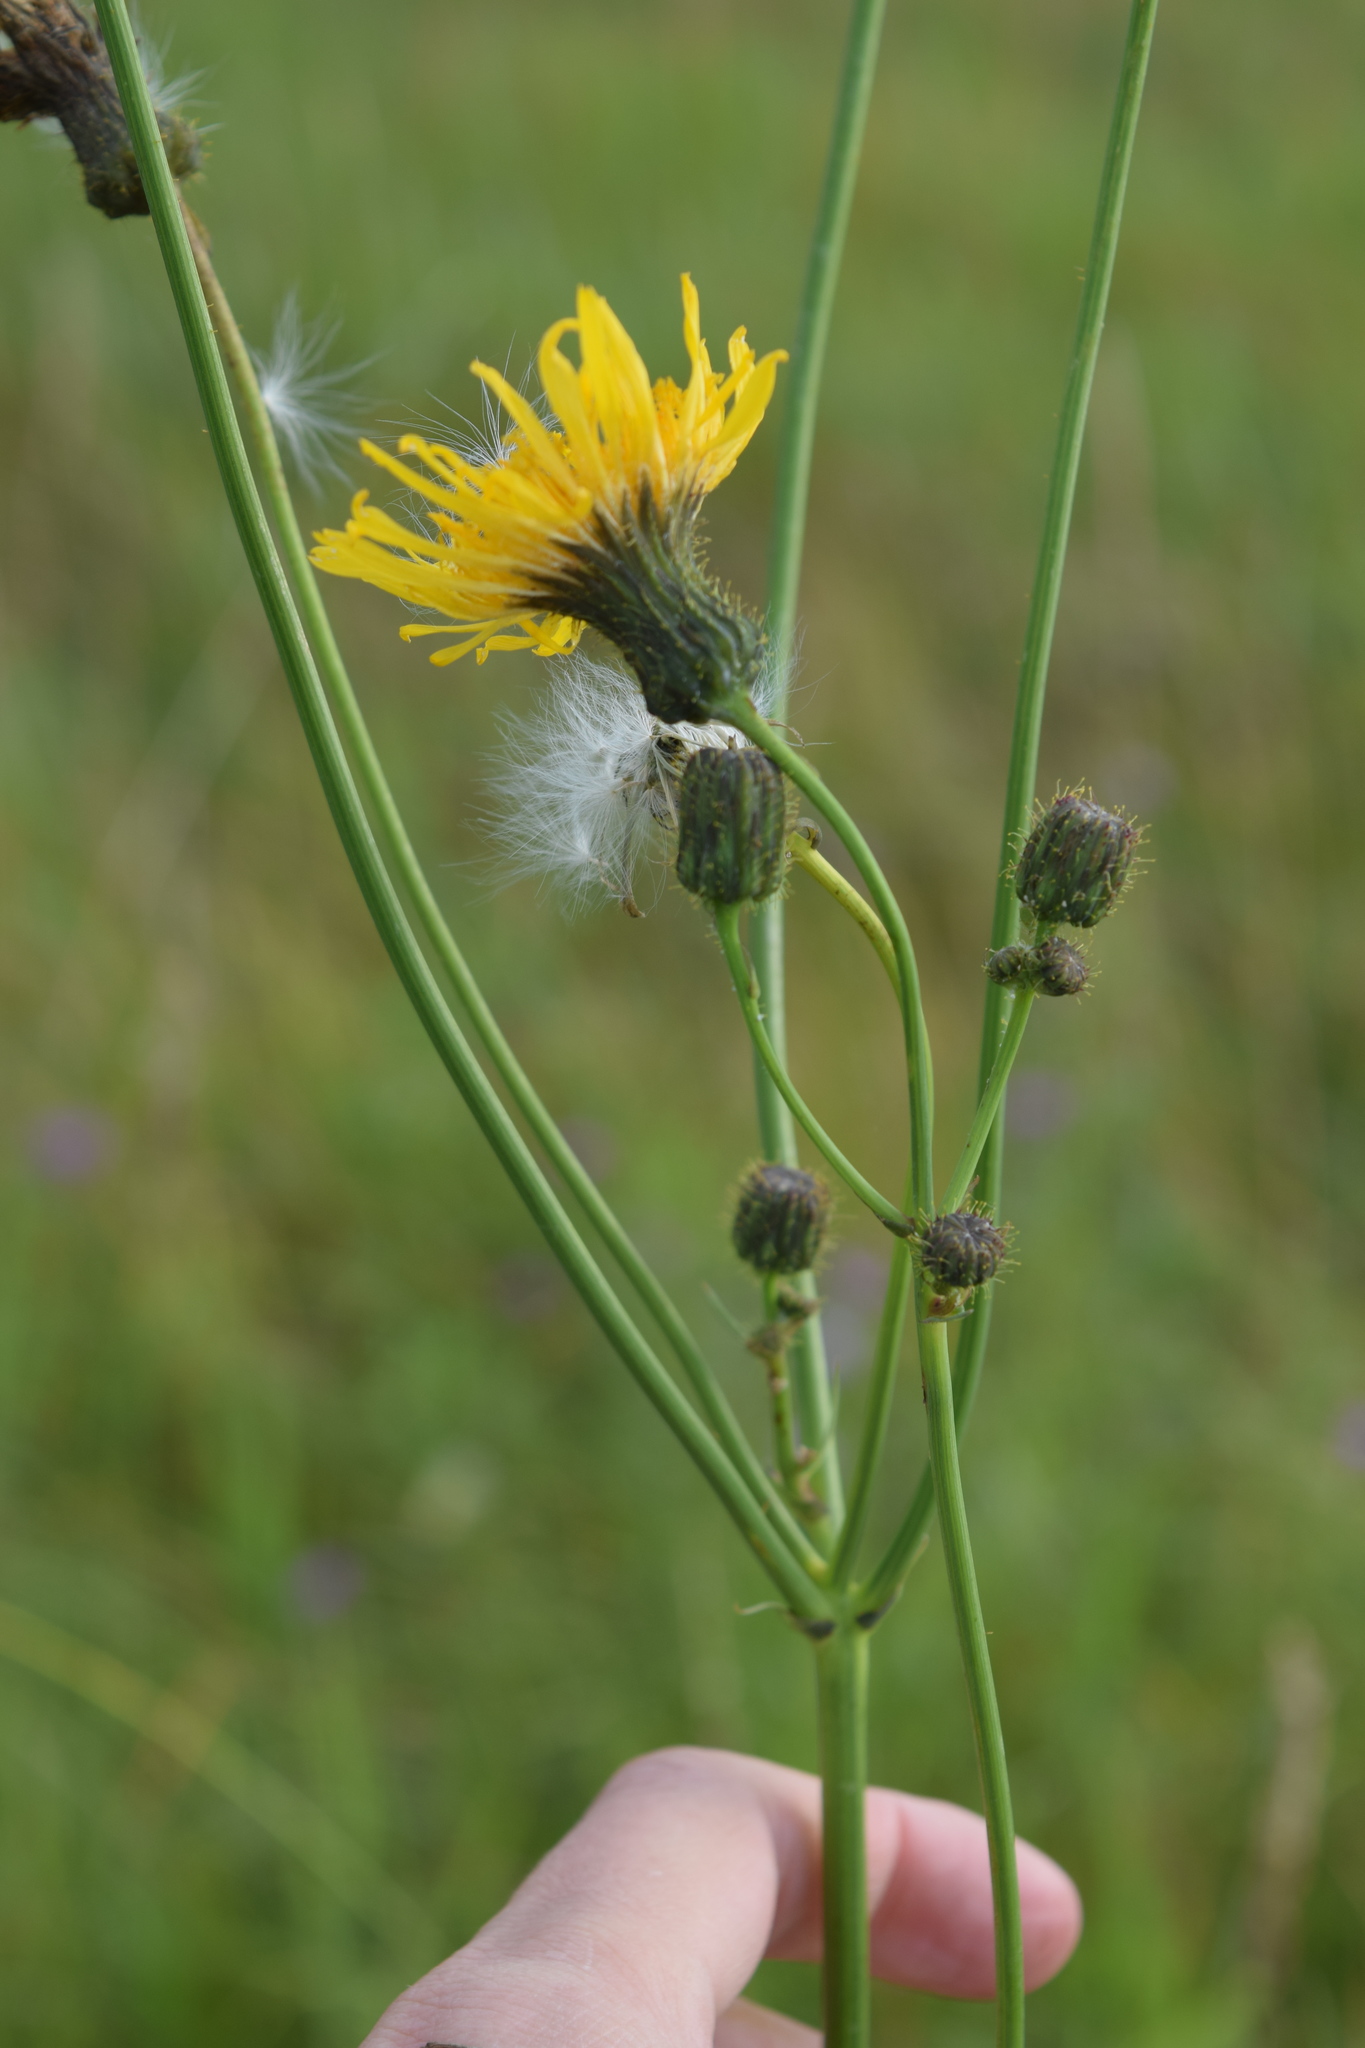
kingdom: Plantae
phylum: Tracheophyta
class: Magnoliopsida
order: Asterales
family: Asteraceae
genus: Sonchus
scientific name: Sonchus arvensis
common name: Perennial sow-thistle
